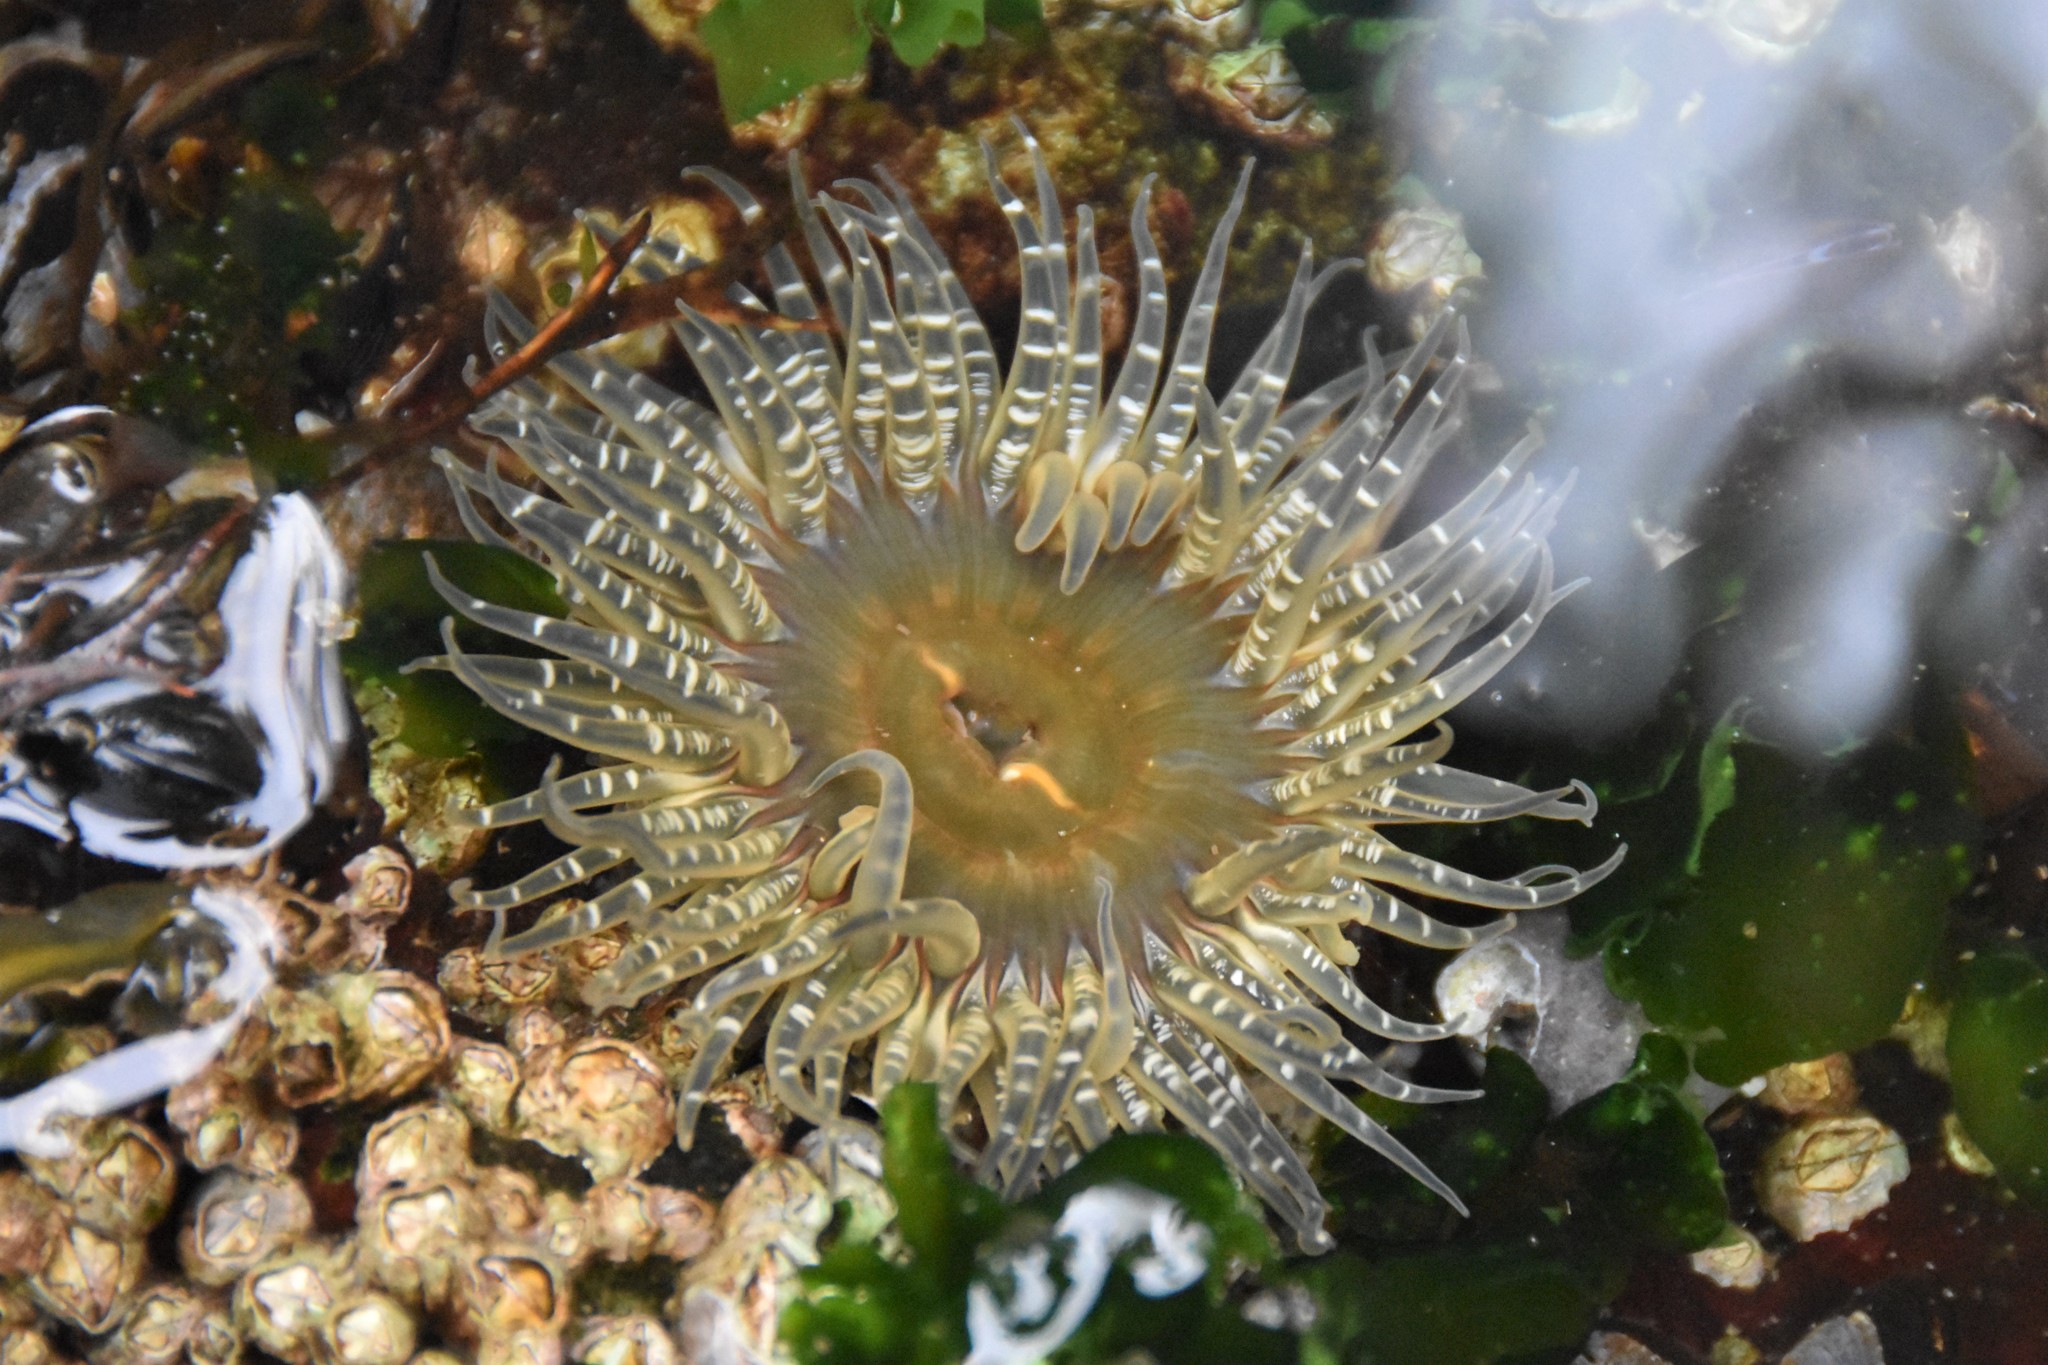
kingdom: Animalia
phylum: Cnidaria
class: Anthozoa
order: Actiniaria
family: Actiniidae
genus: Anthopleura
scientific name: Anthopleura artemisia
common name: Buried sea anemone
